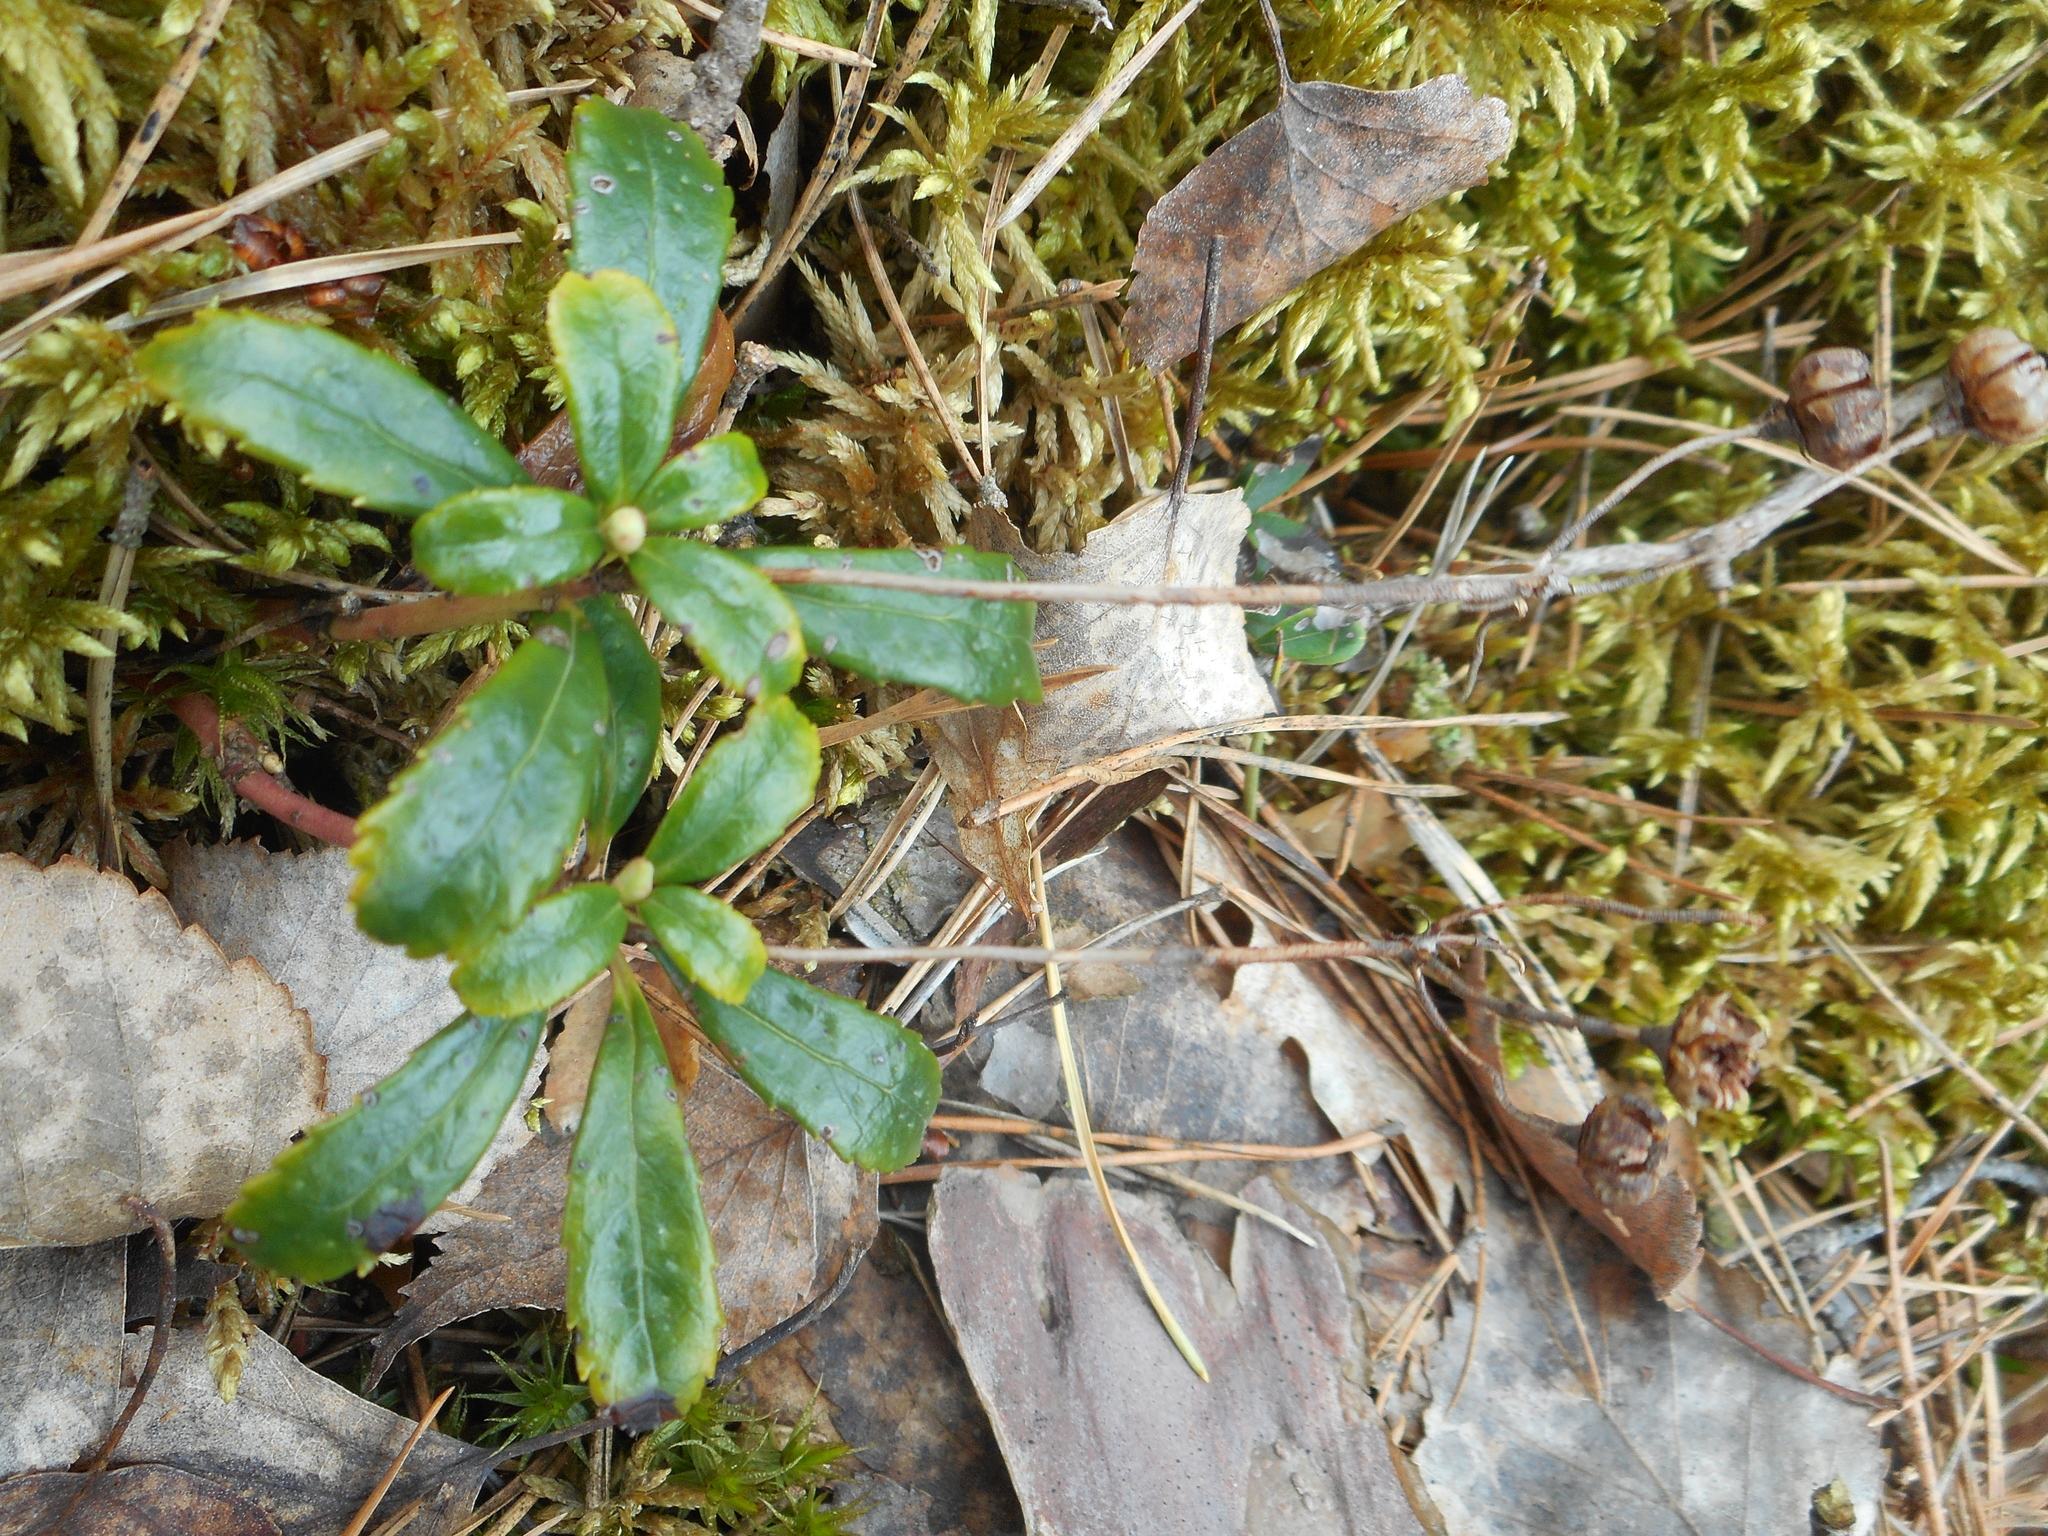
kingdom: Plantae
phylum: Tracheophyta
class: Magnoliopsida
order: Ericales
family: Ericaceae
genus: Chimaphila
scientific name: Chimaphila umbellata
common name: Pipsissewa
